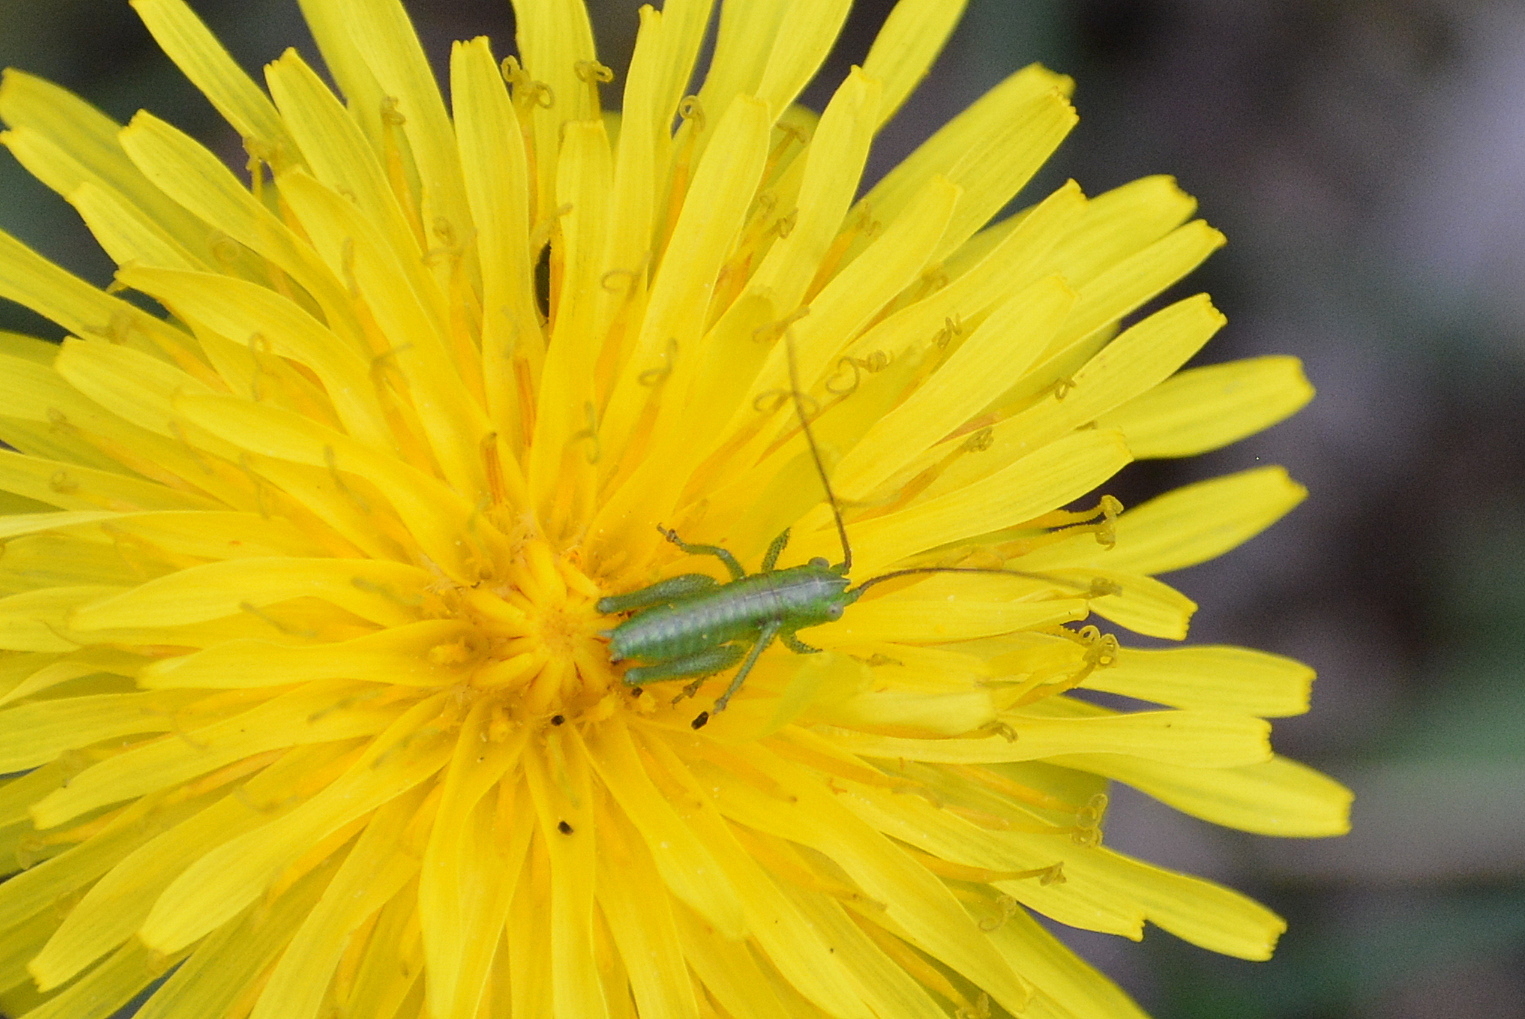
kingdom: Animalia
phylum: Arthropoda
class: Insecta
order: Orthoptera
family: Tettigoniidae
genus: Tettigonia
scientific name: Tettigonia viridissima
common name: Great green bush-cricket
